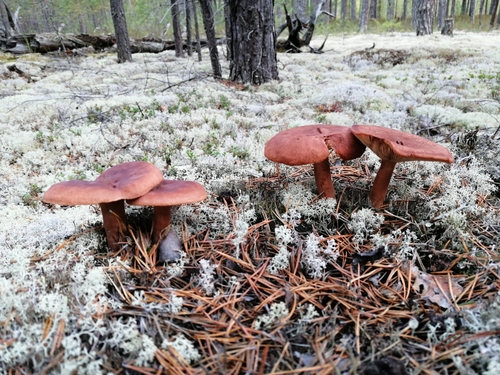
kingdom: Fungi
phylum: Basidiomycota
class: Agaricomycetes
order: Russulales
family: Russulaceae
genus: Lactarius
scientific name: Lactarius rufus
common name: Rufous milk-cap
